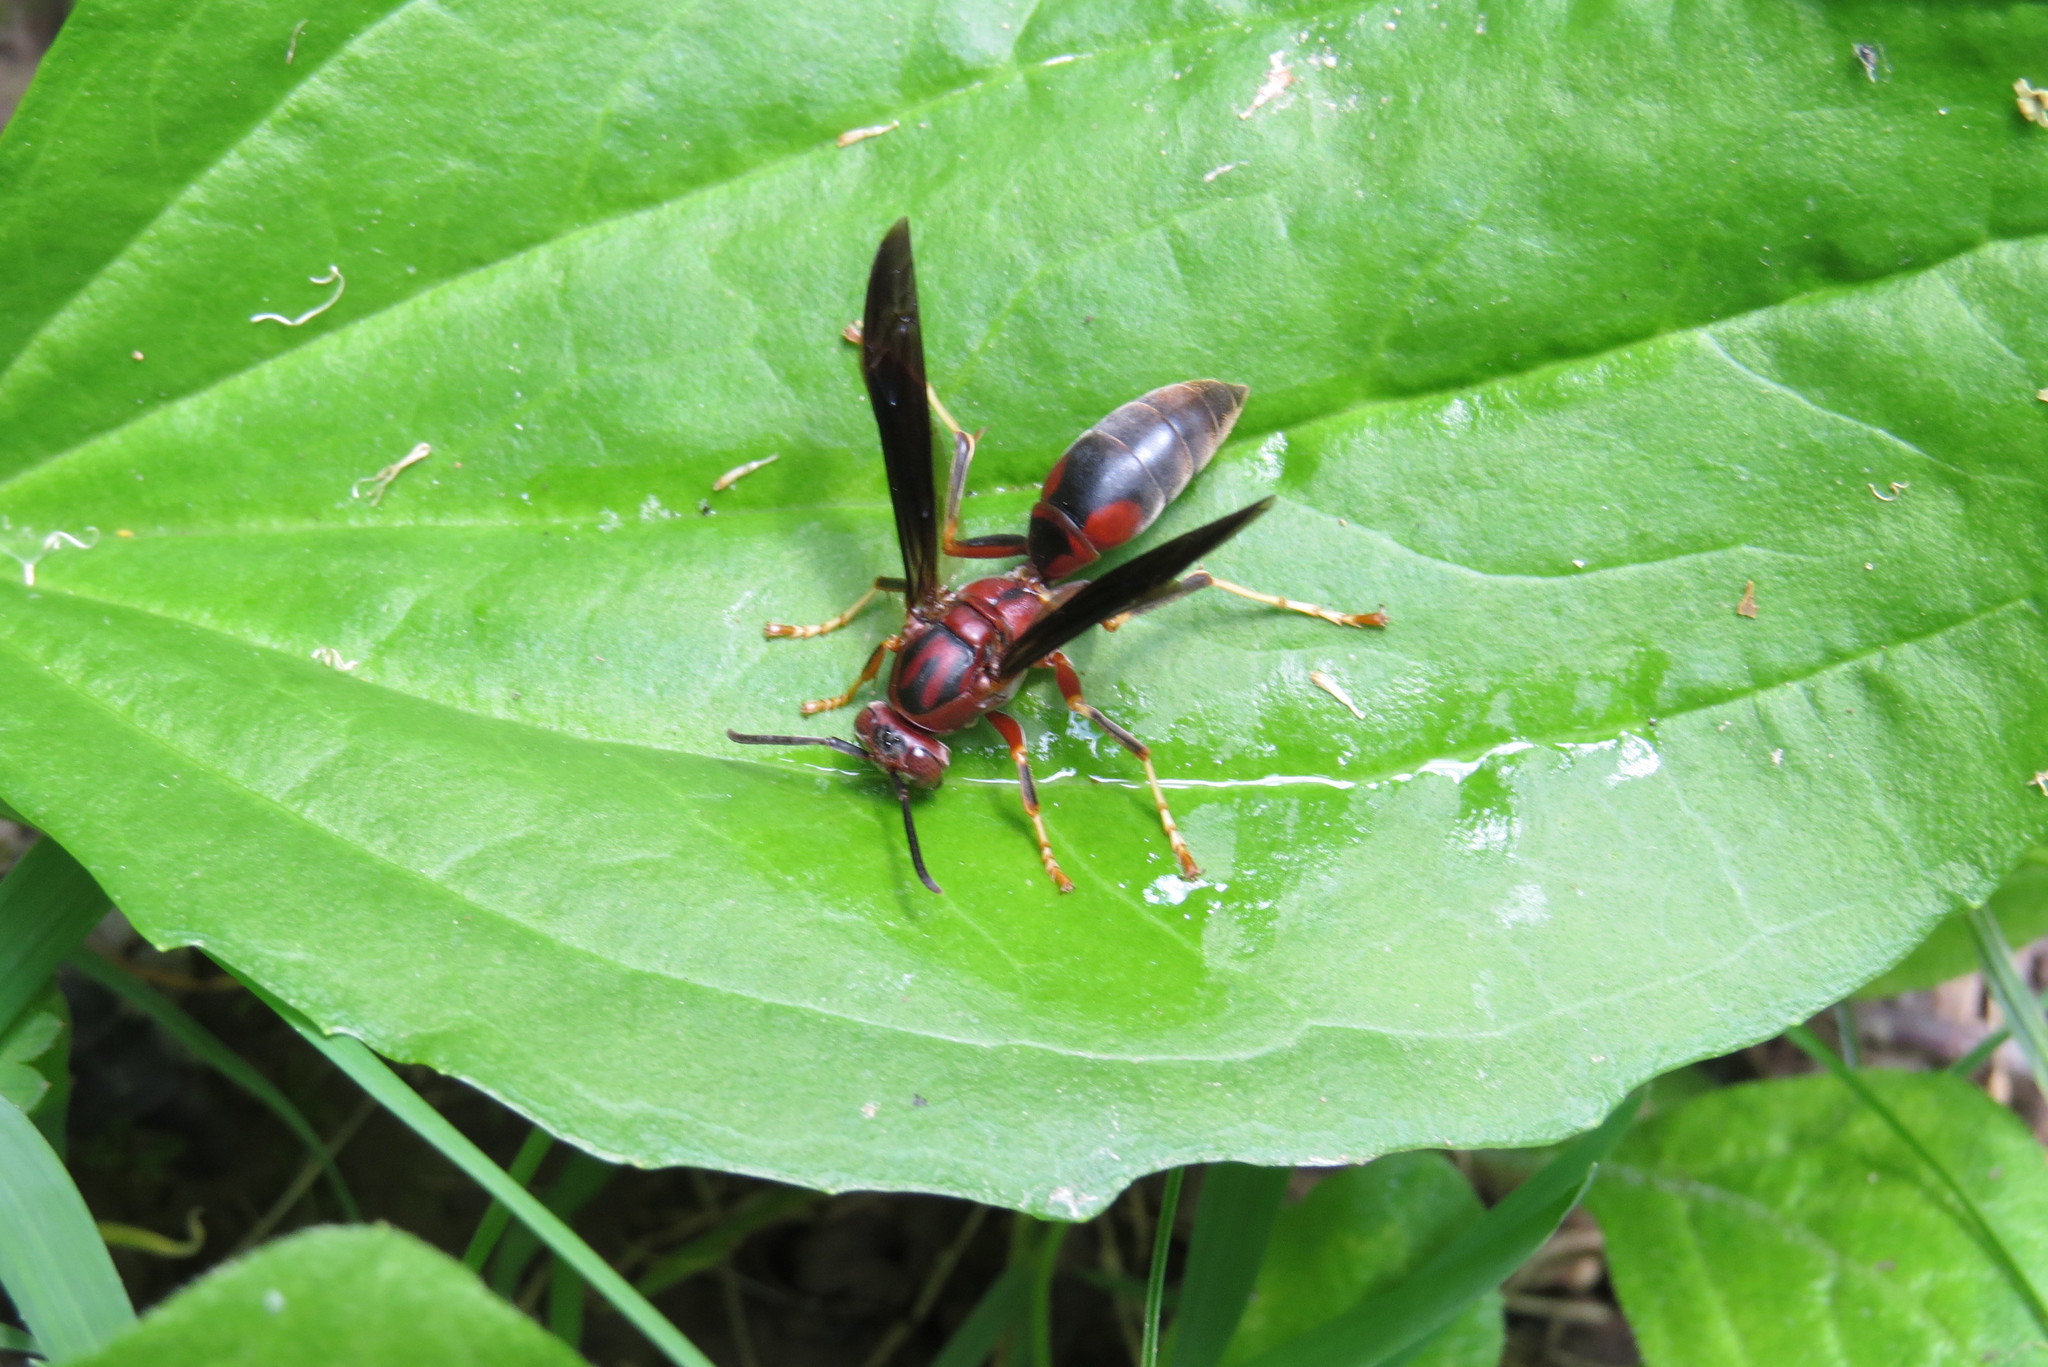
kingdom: Animalia
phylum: Arthropoda
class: Insecta
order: Hymenoptera
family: Eumenidae
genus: Polistes
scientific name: Polistes metricus
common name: Metric paper wasp
